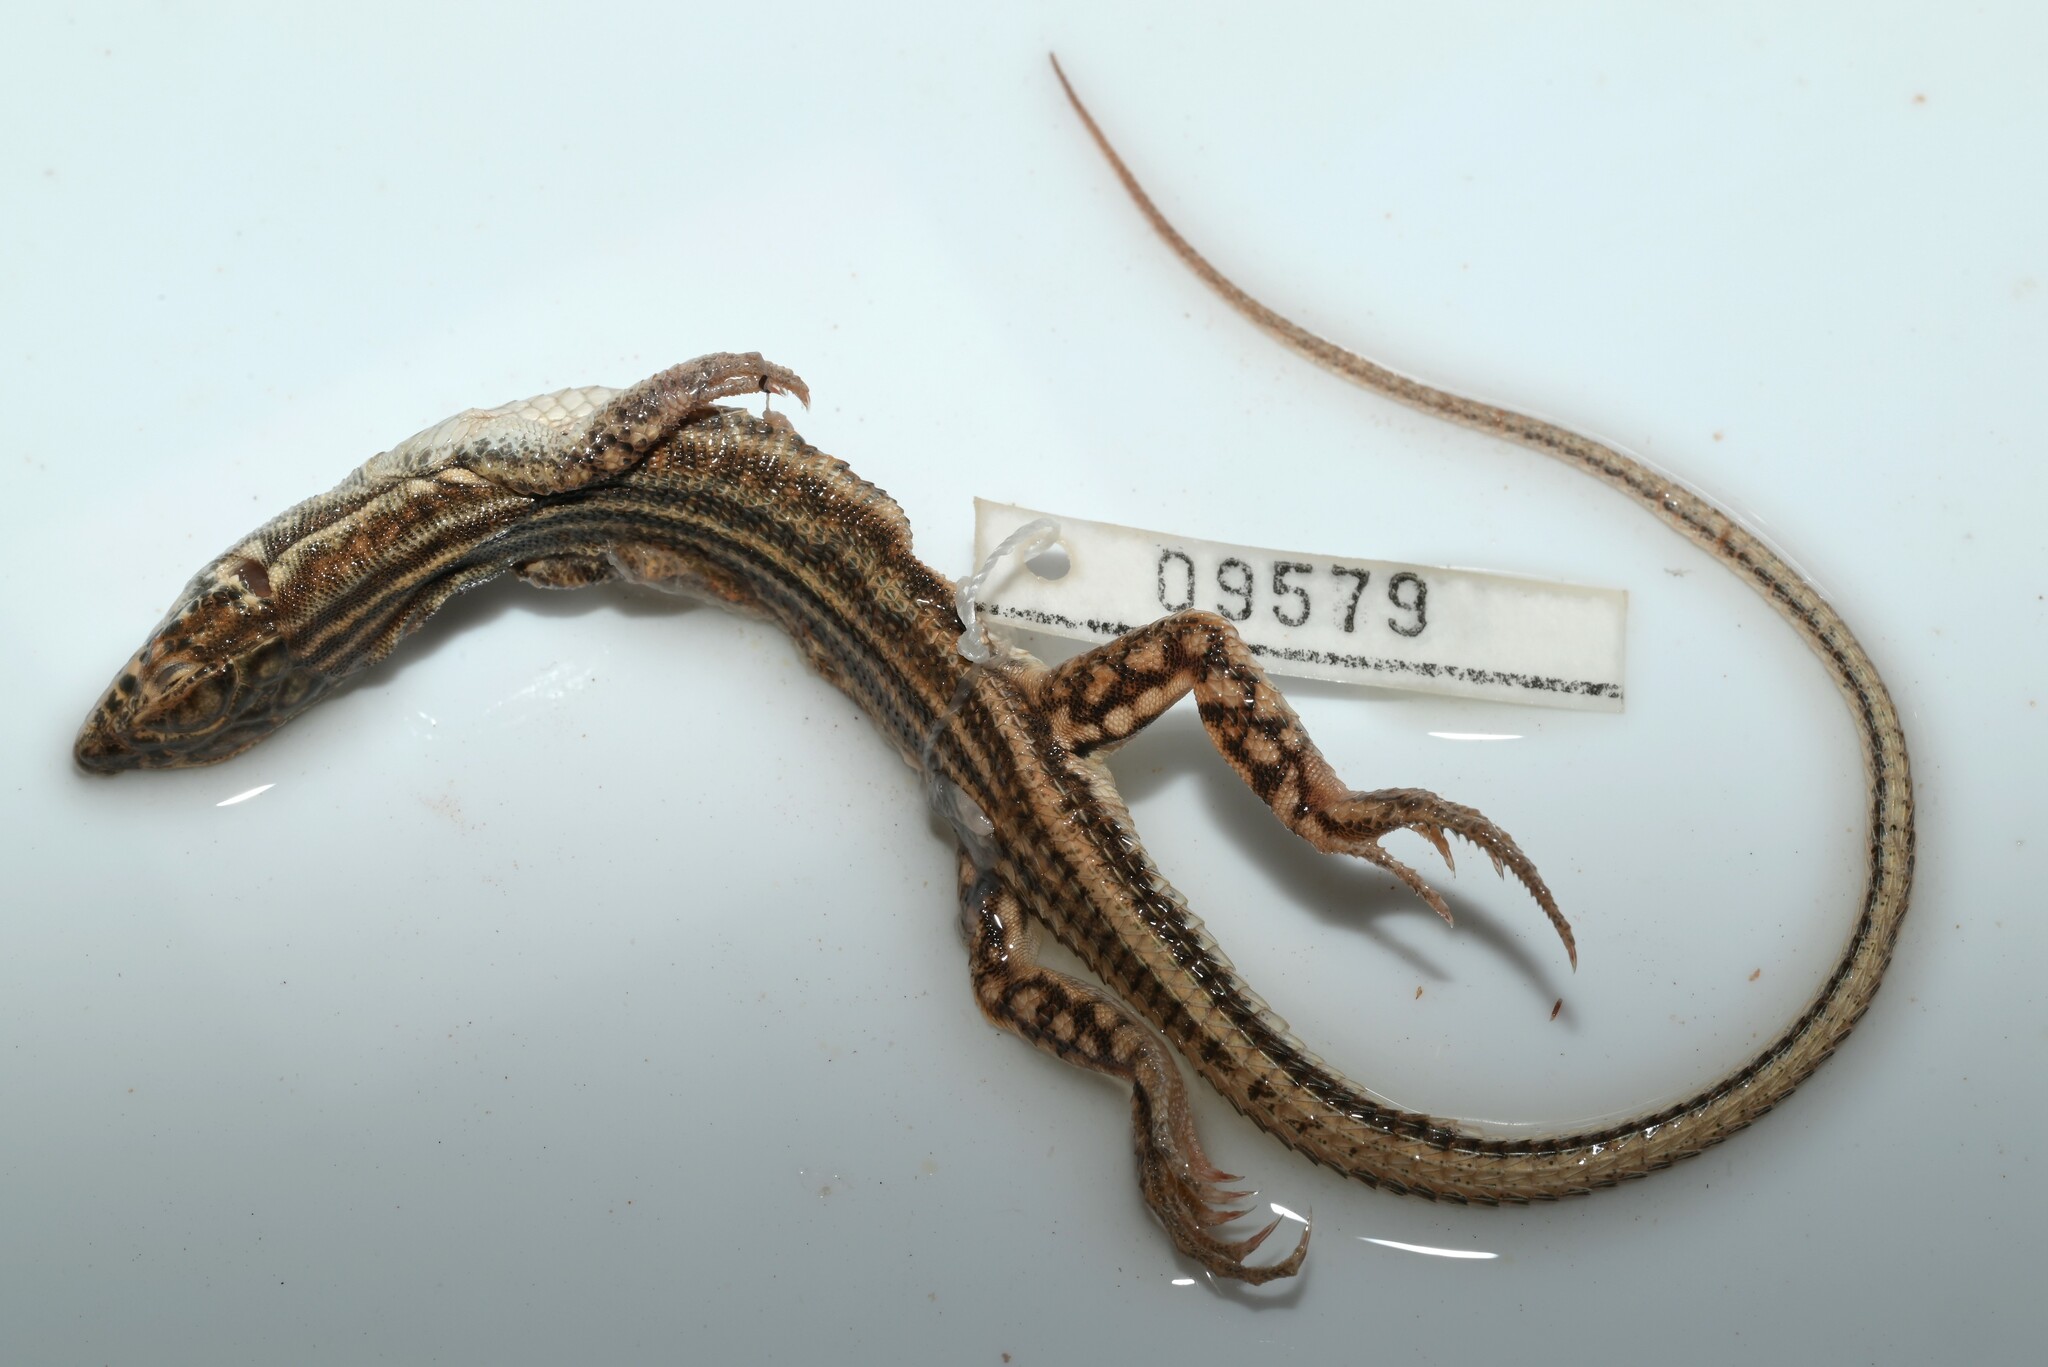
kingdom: Animalia
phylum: Chordata
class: Squamata
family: Lacertidae
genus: Acanthodactylus
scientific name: Acanthodactylus opheodurus
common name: Arnold's fringe-fingered lizard
